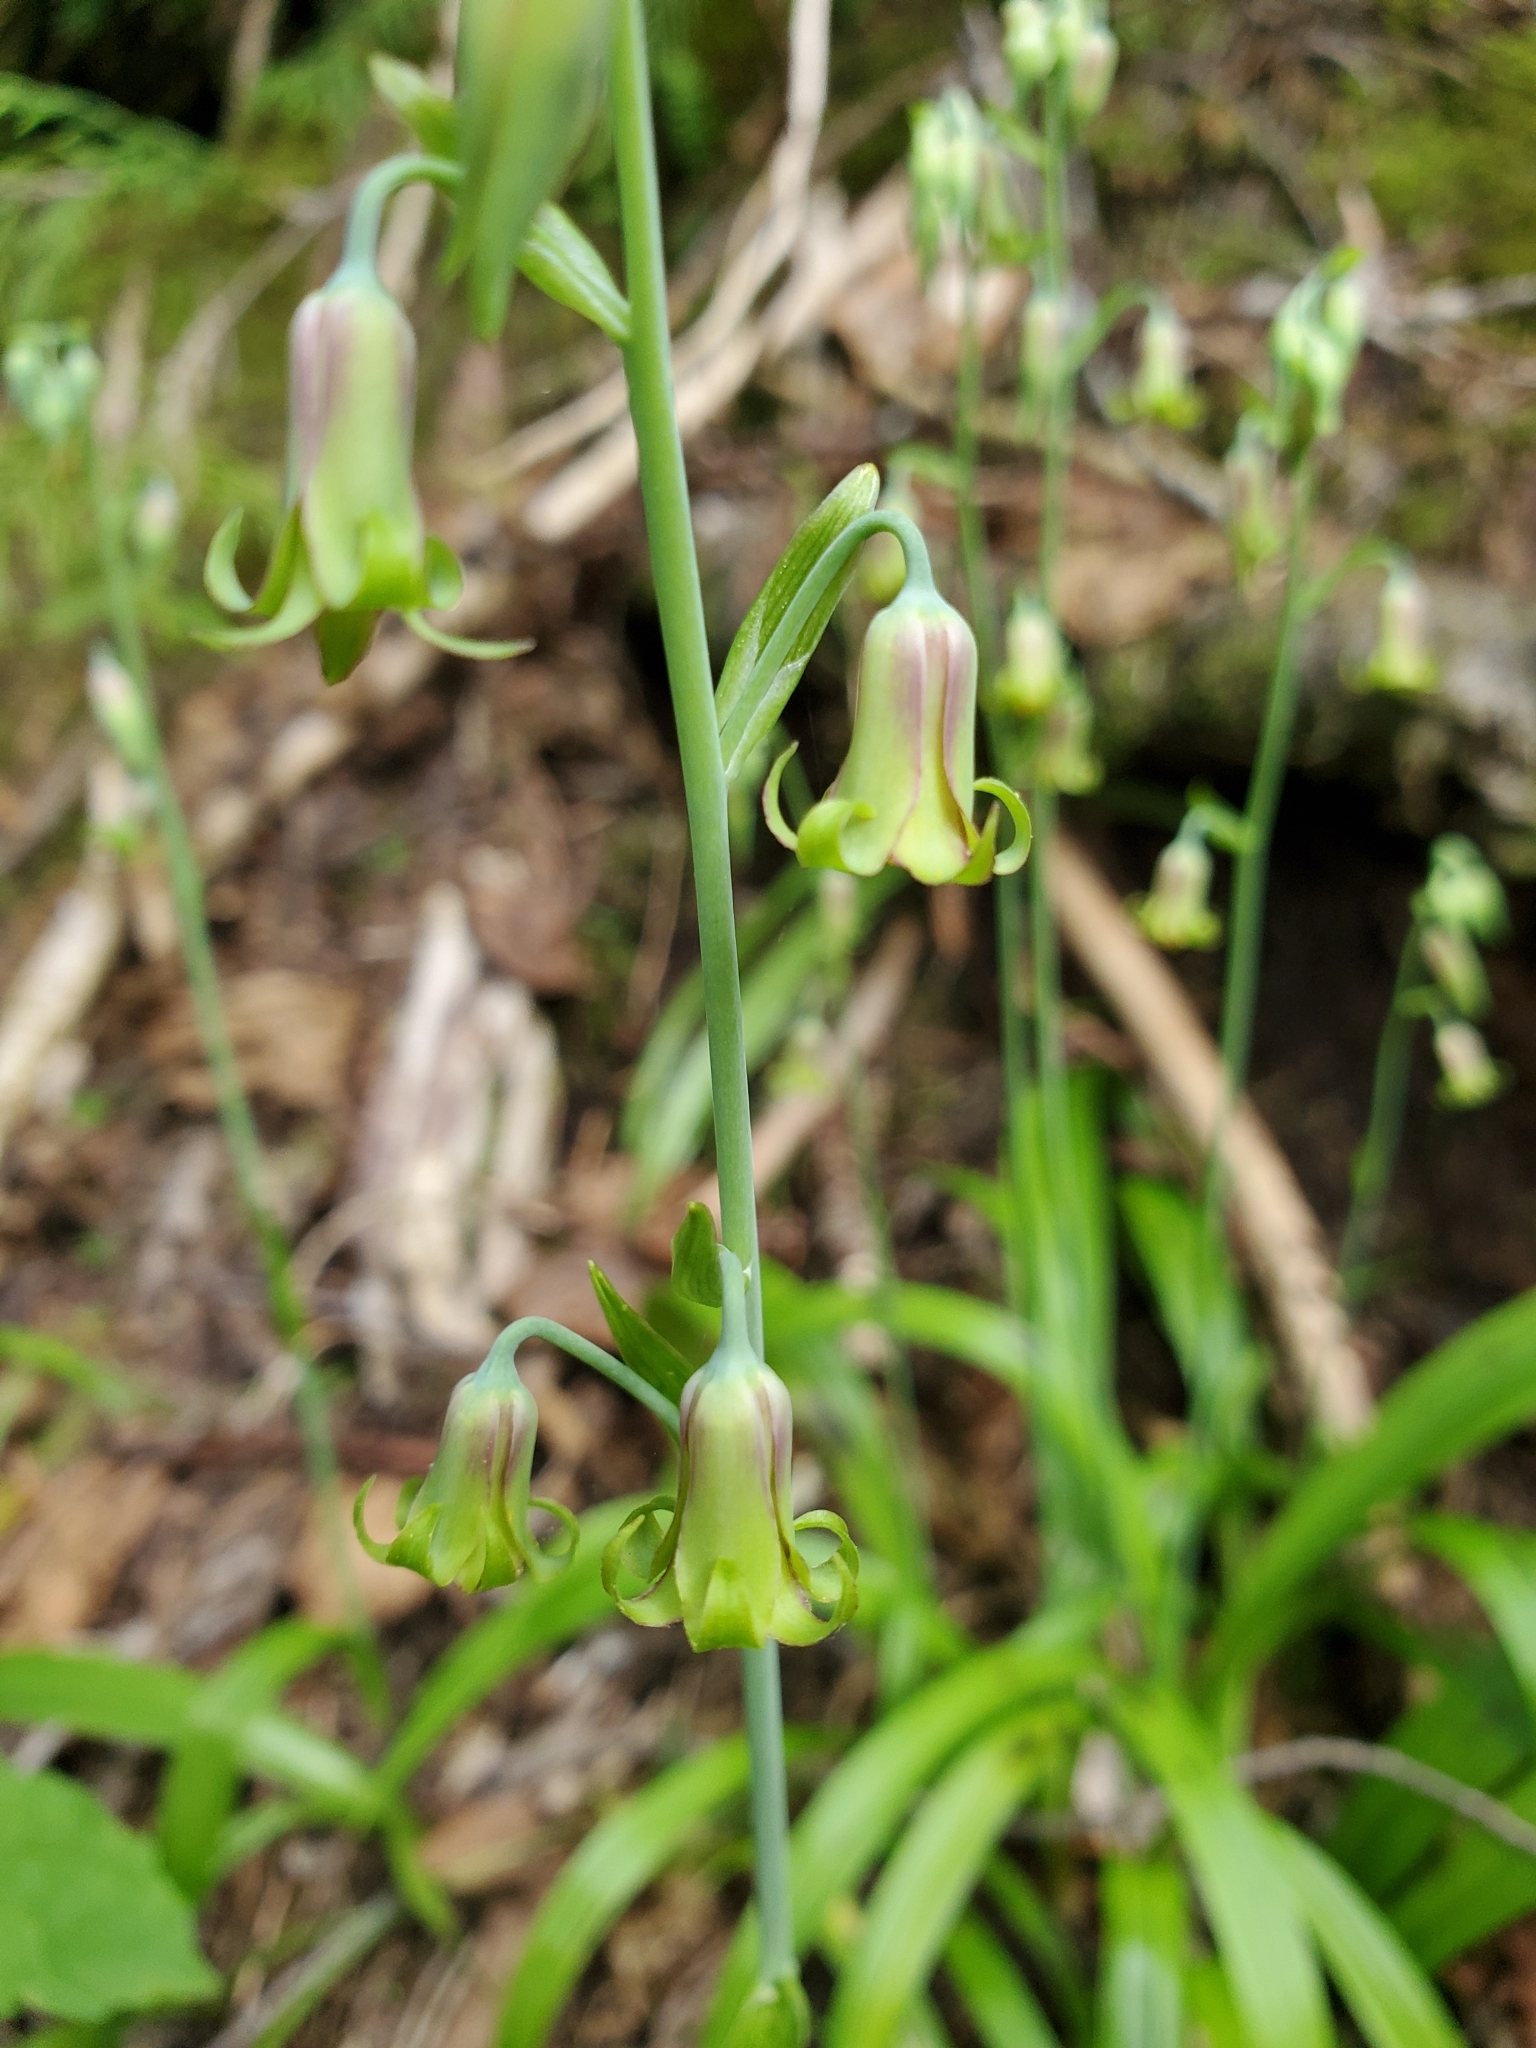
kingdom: Plantae
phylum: Tracheophyta
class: Liliopsida
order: Liliales
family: Melanthiaceae
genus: Anticlea
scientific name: Anticlea occidentalis
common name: Bronze-bells
